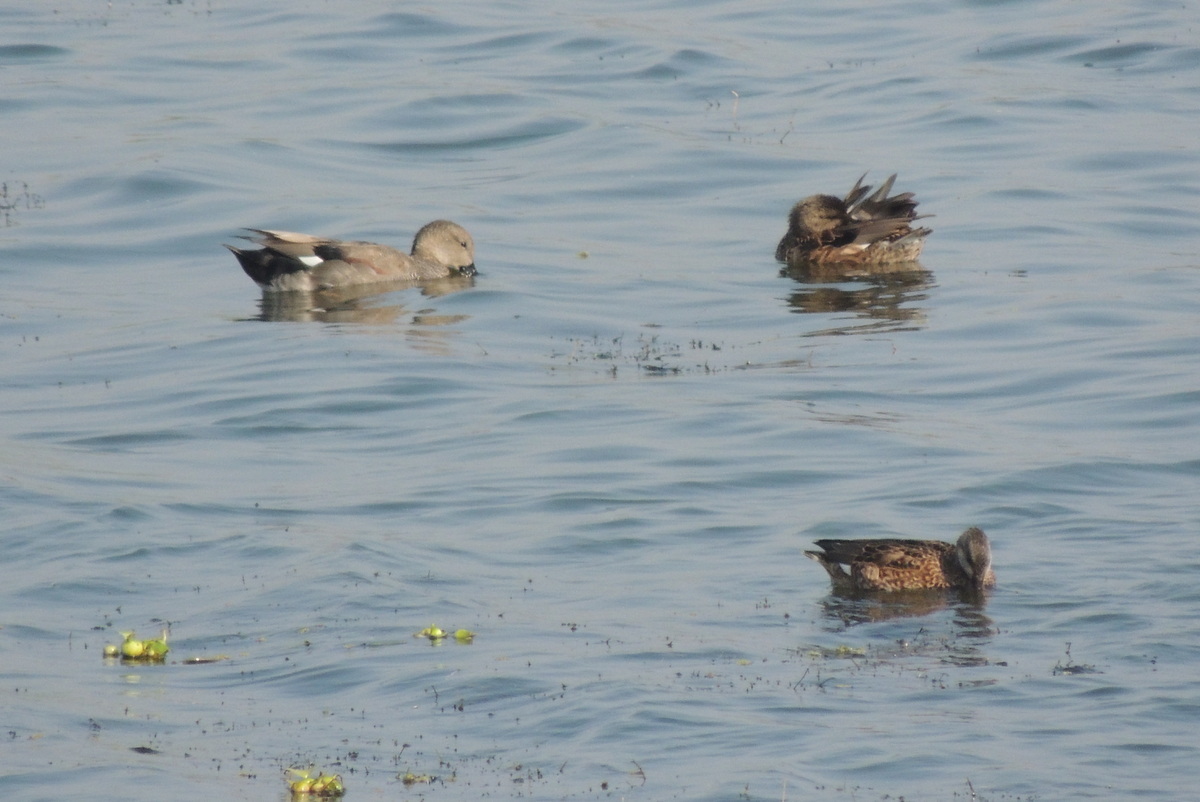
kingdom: Animalia
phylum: Chordata
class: Aves
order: Anseriformes
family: Anatidae
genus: Mareca
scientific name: Mareca strepera
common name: Gadwall
